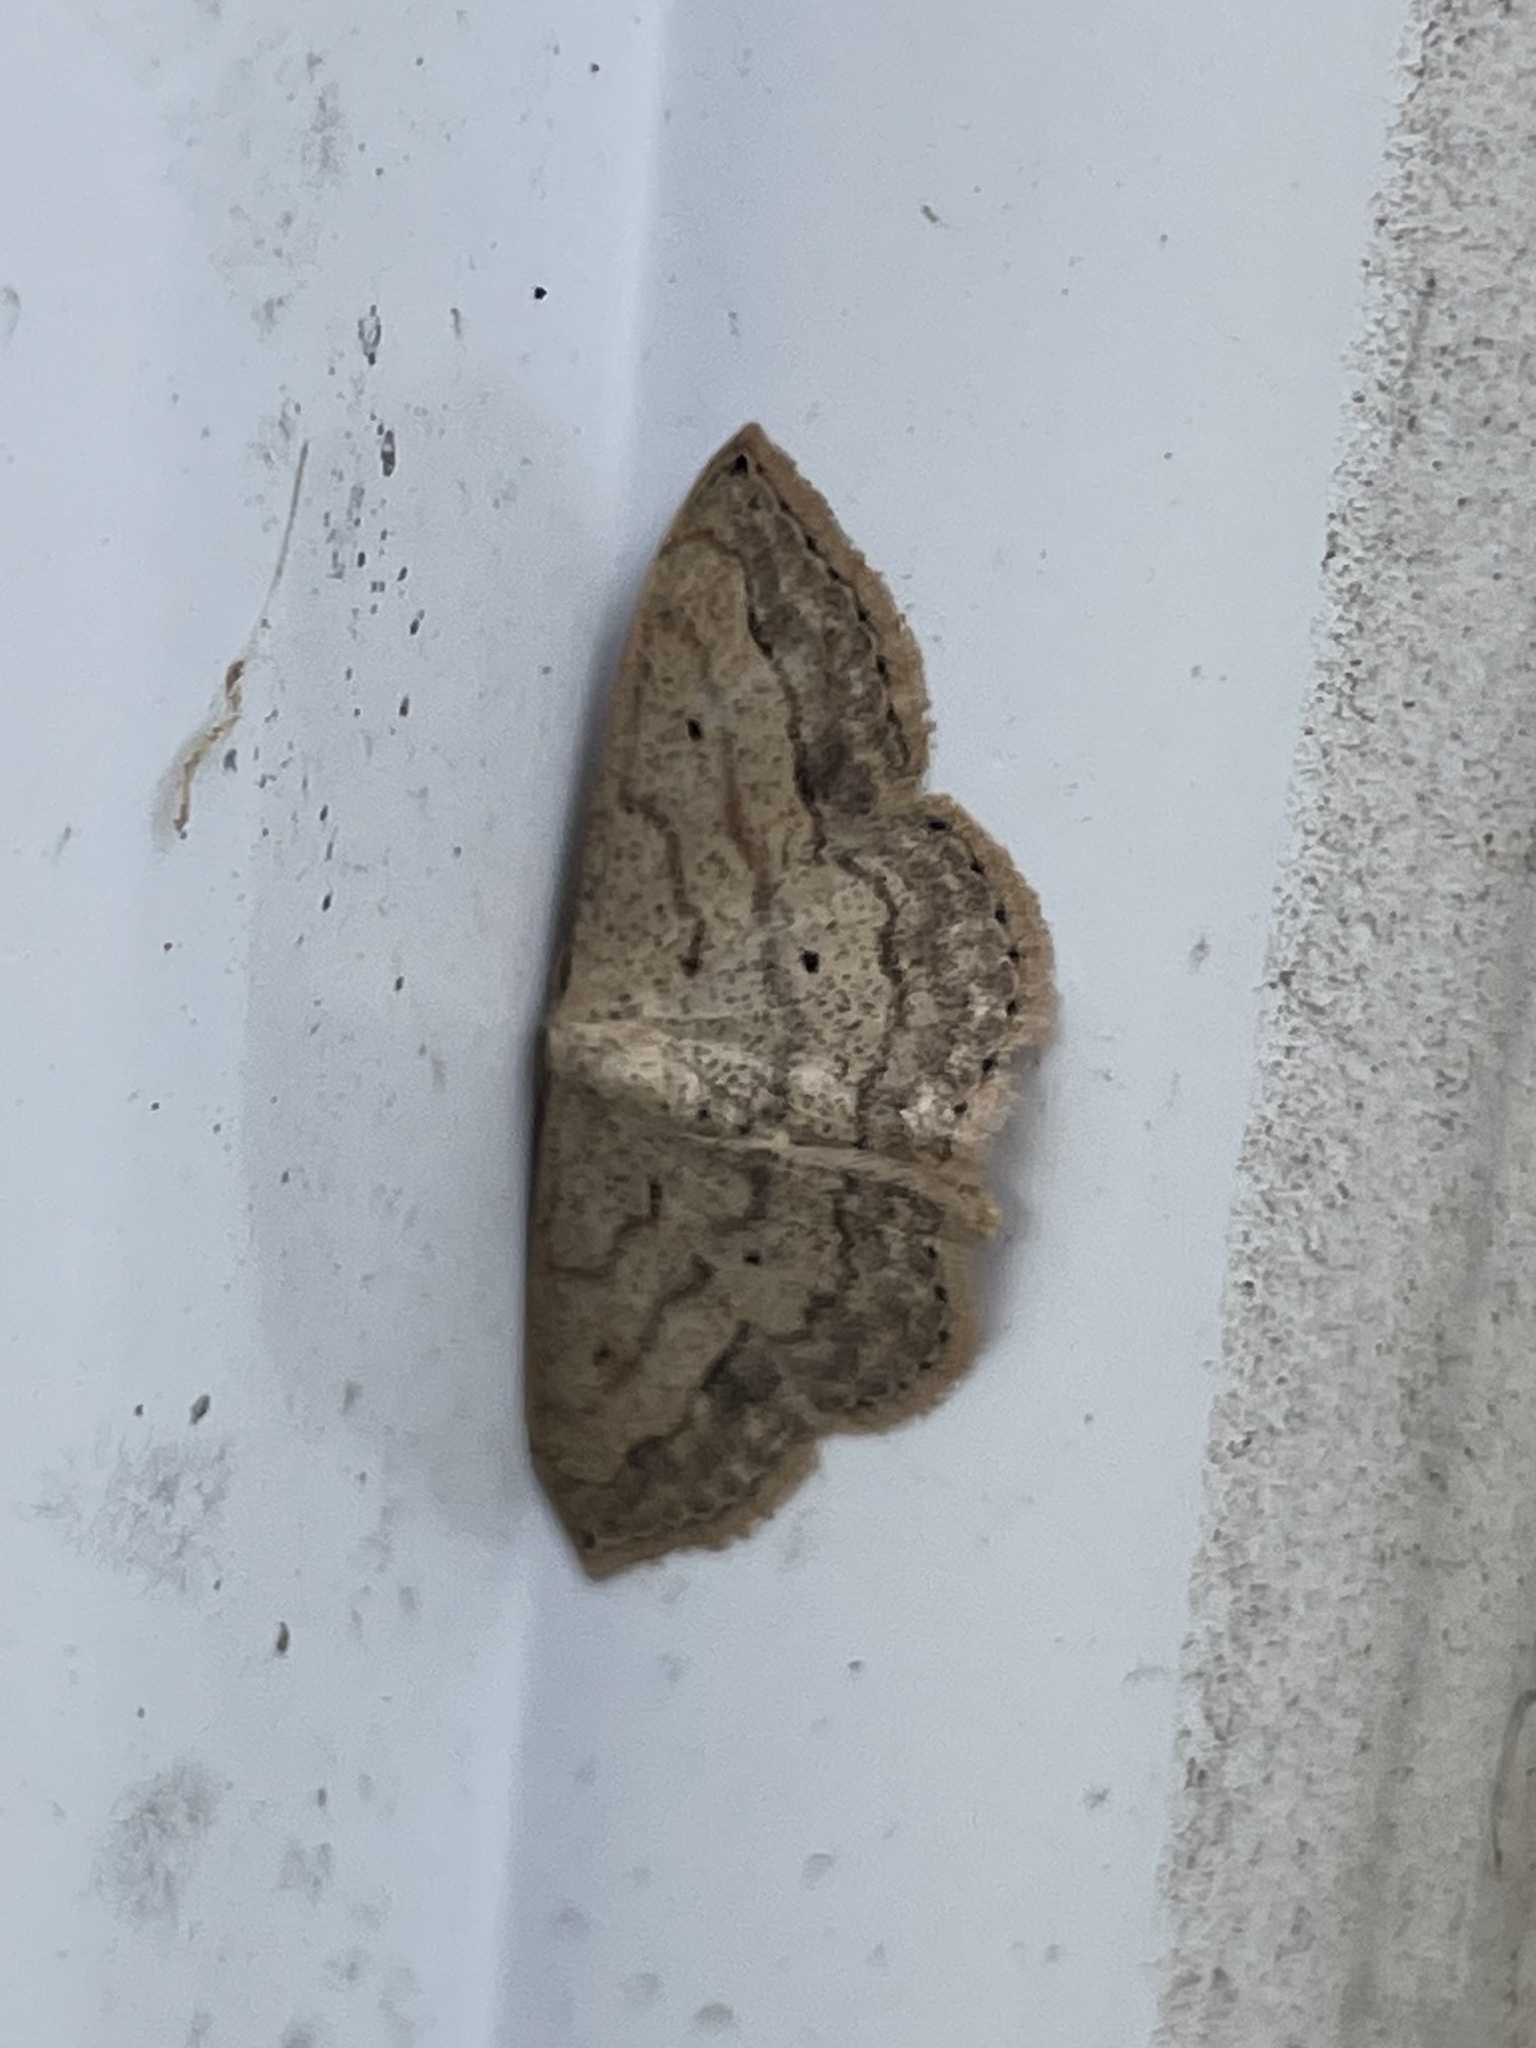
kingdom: Animalia
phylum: Arthropoda
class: Insecta
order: Lepidoptera
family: Geometridae
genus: Scopula
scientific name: Scopula umbilicata
